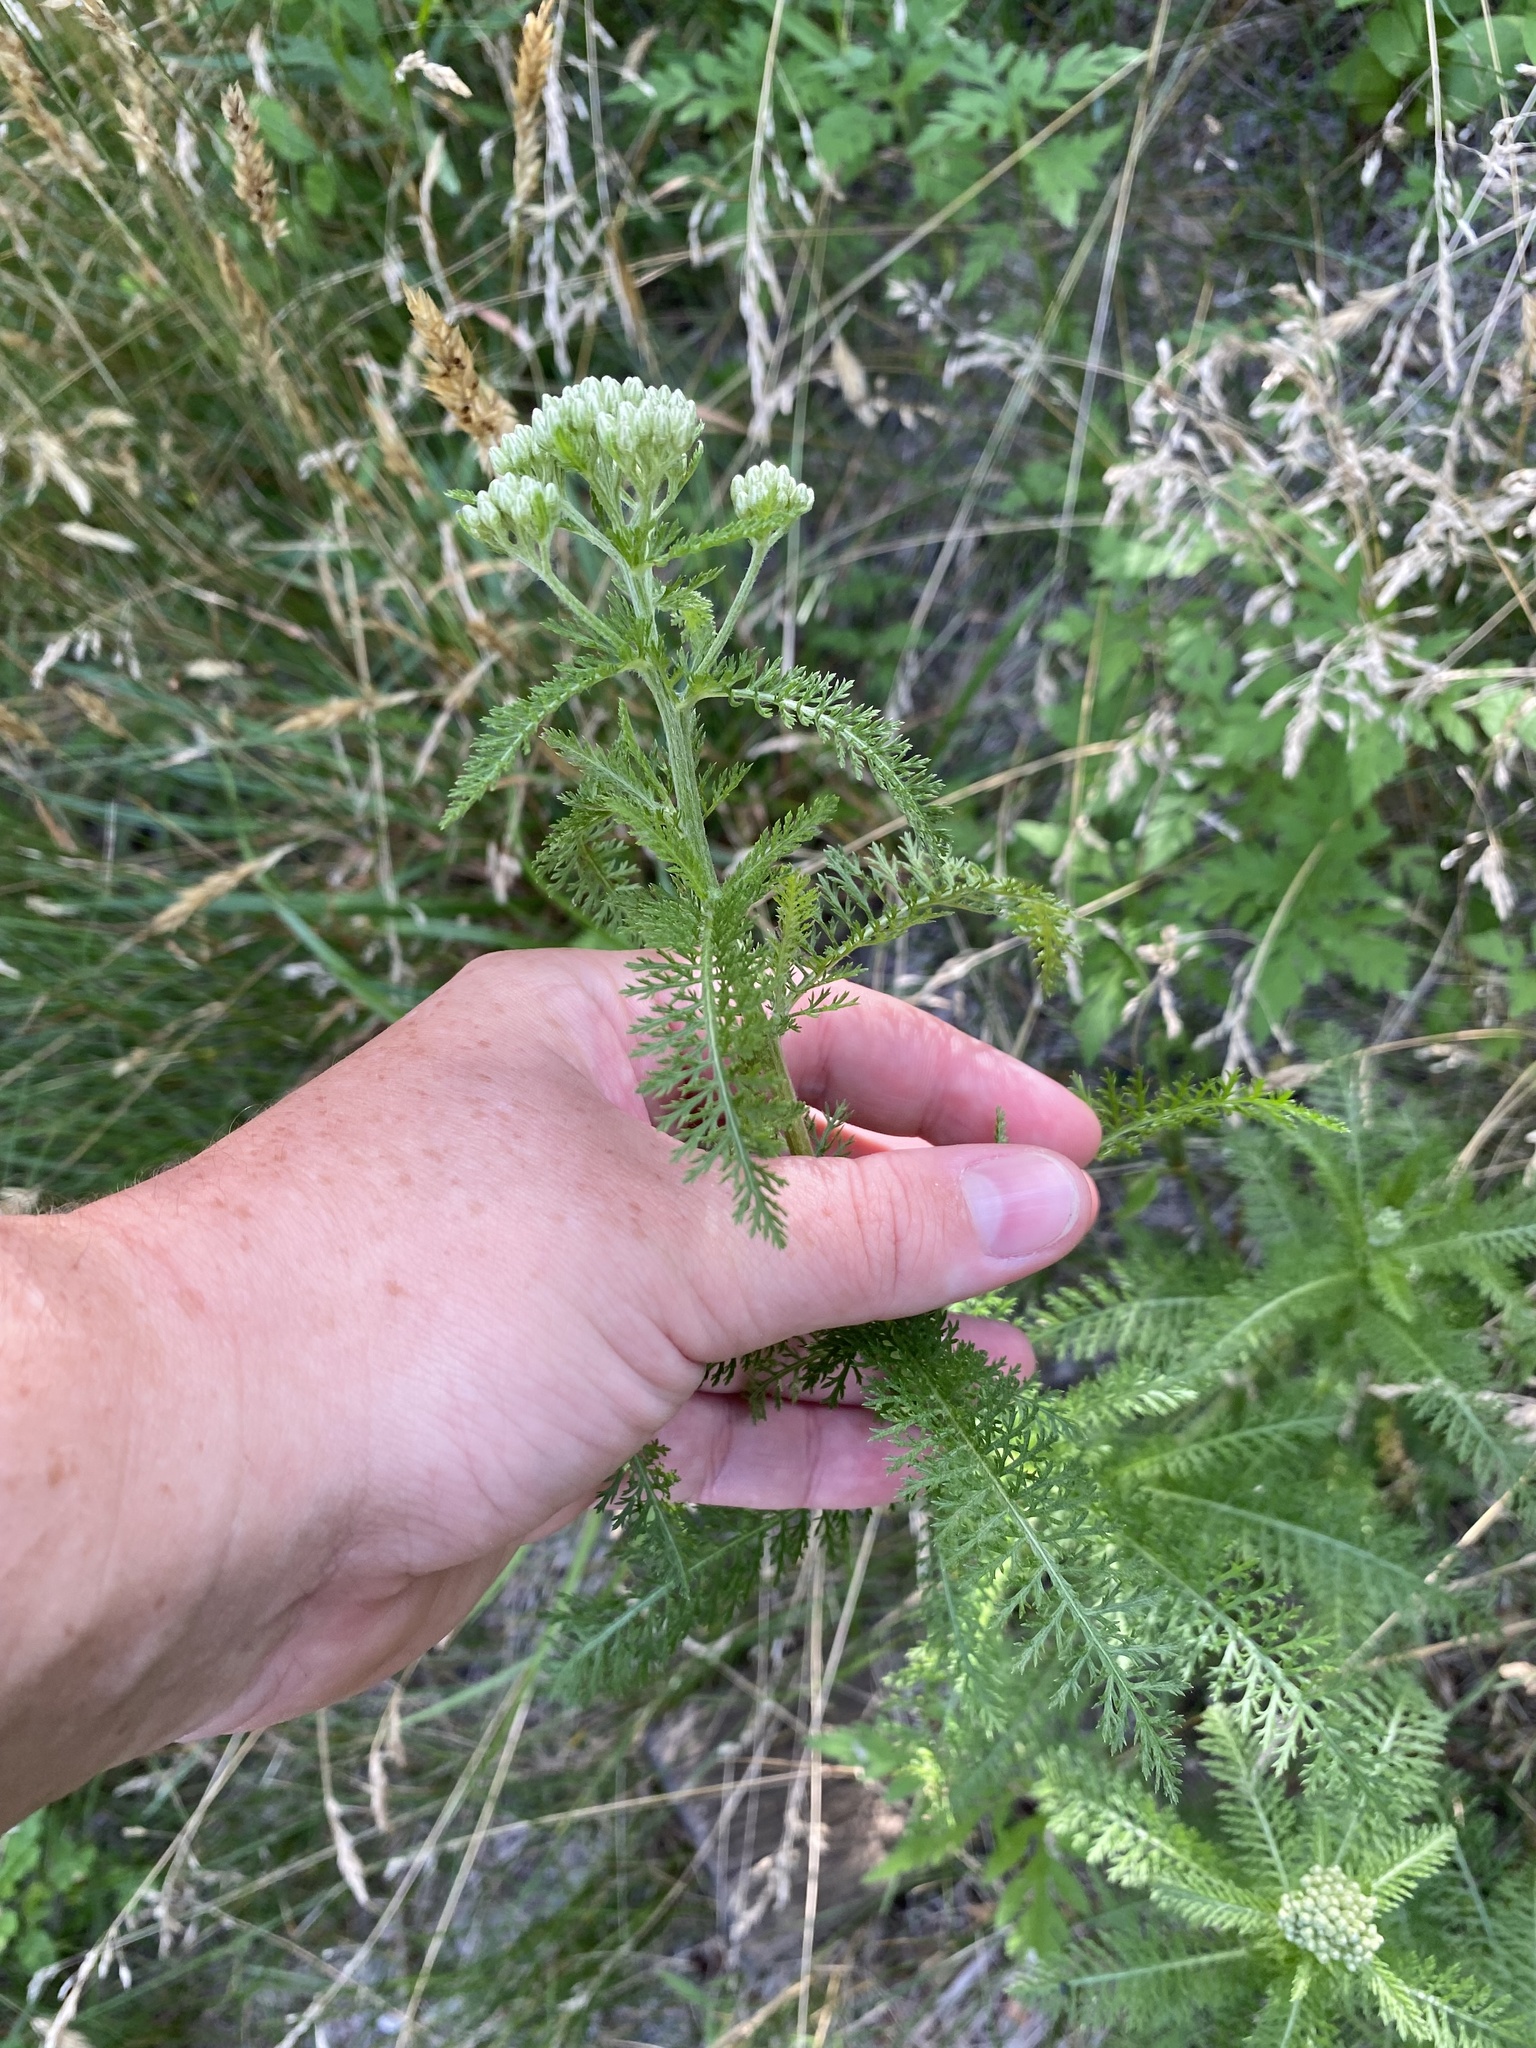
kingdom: Plantae
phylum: Tracheophyta
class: Magnoliopsida
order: Asterales
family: Asteraceae
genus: Achillea
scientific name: Achillea millefolium
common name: Yarrow
